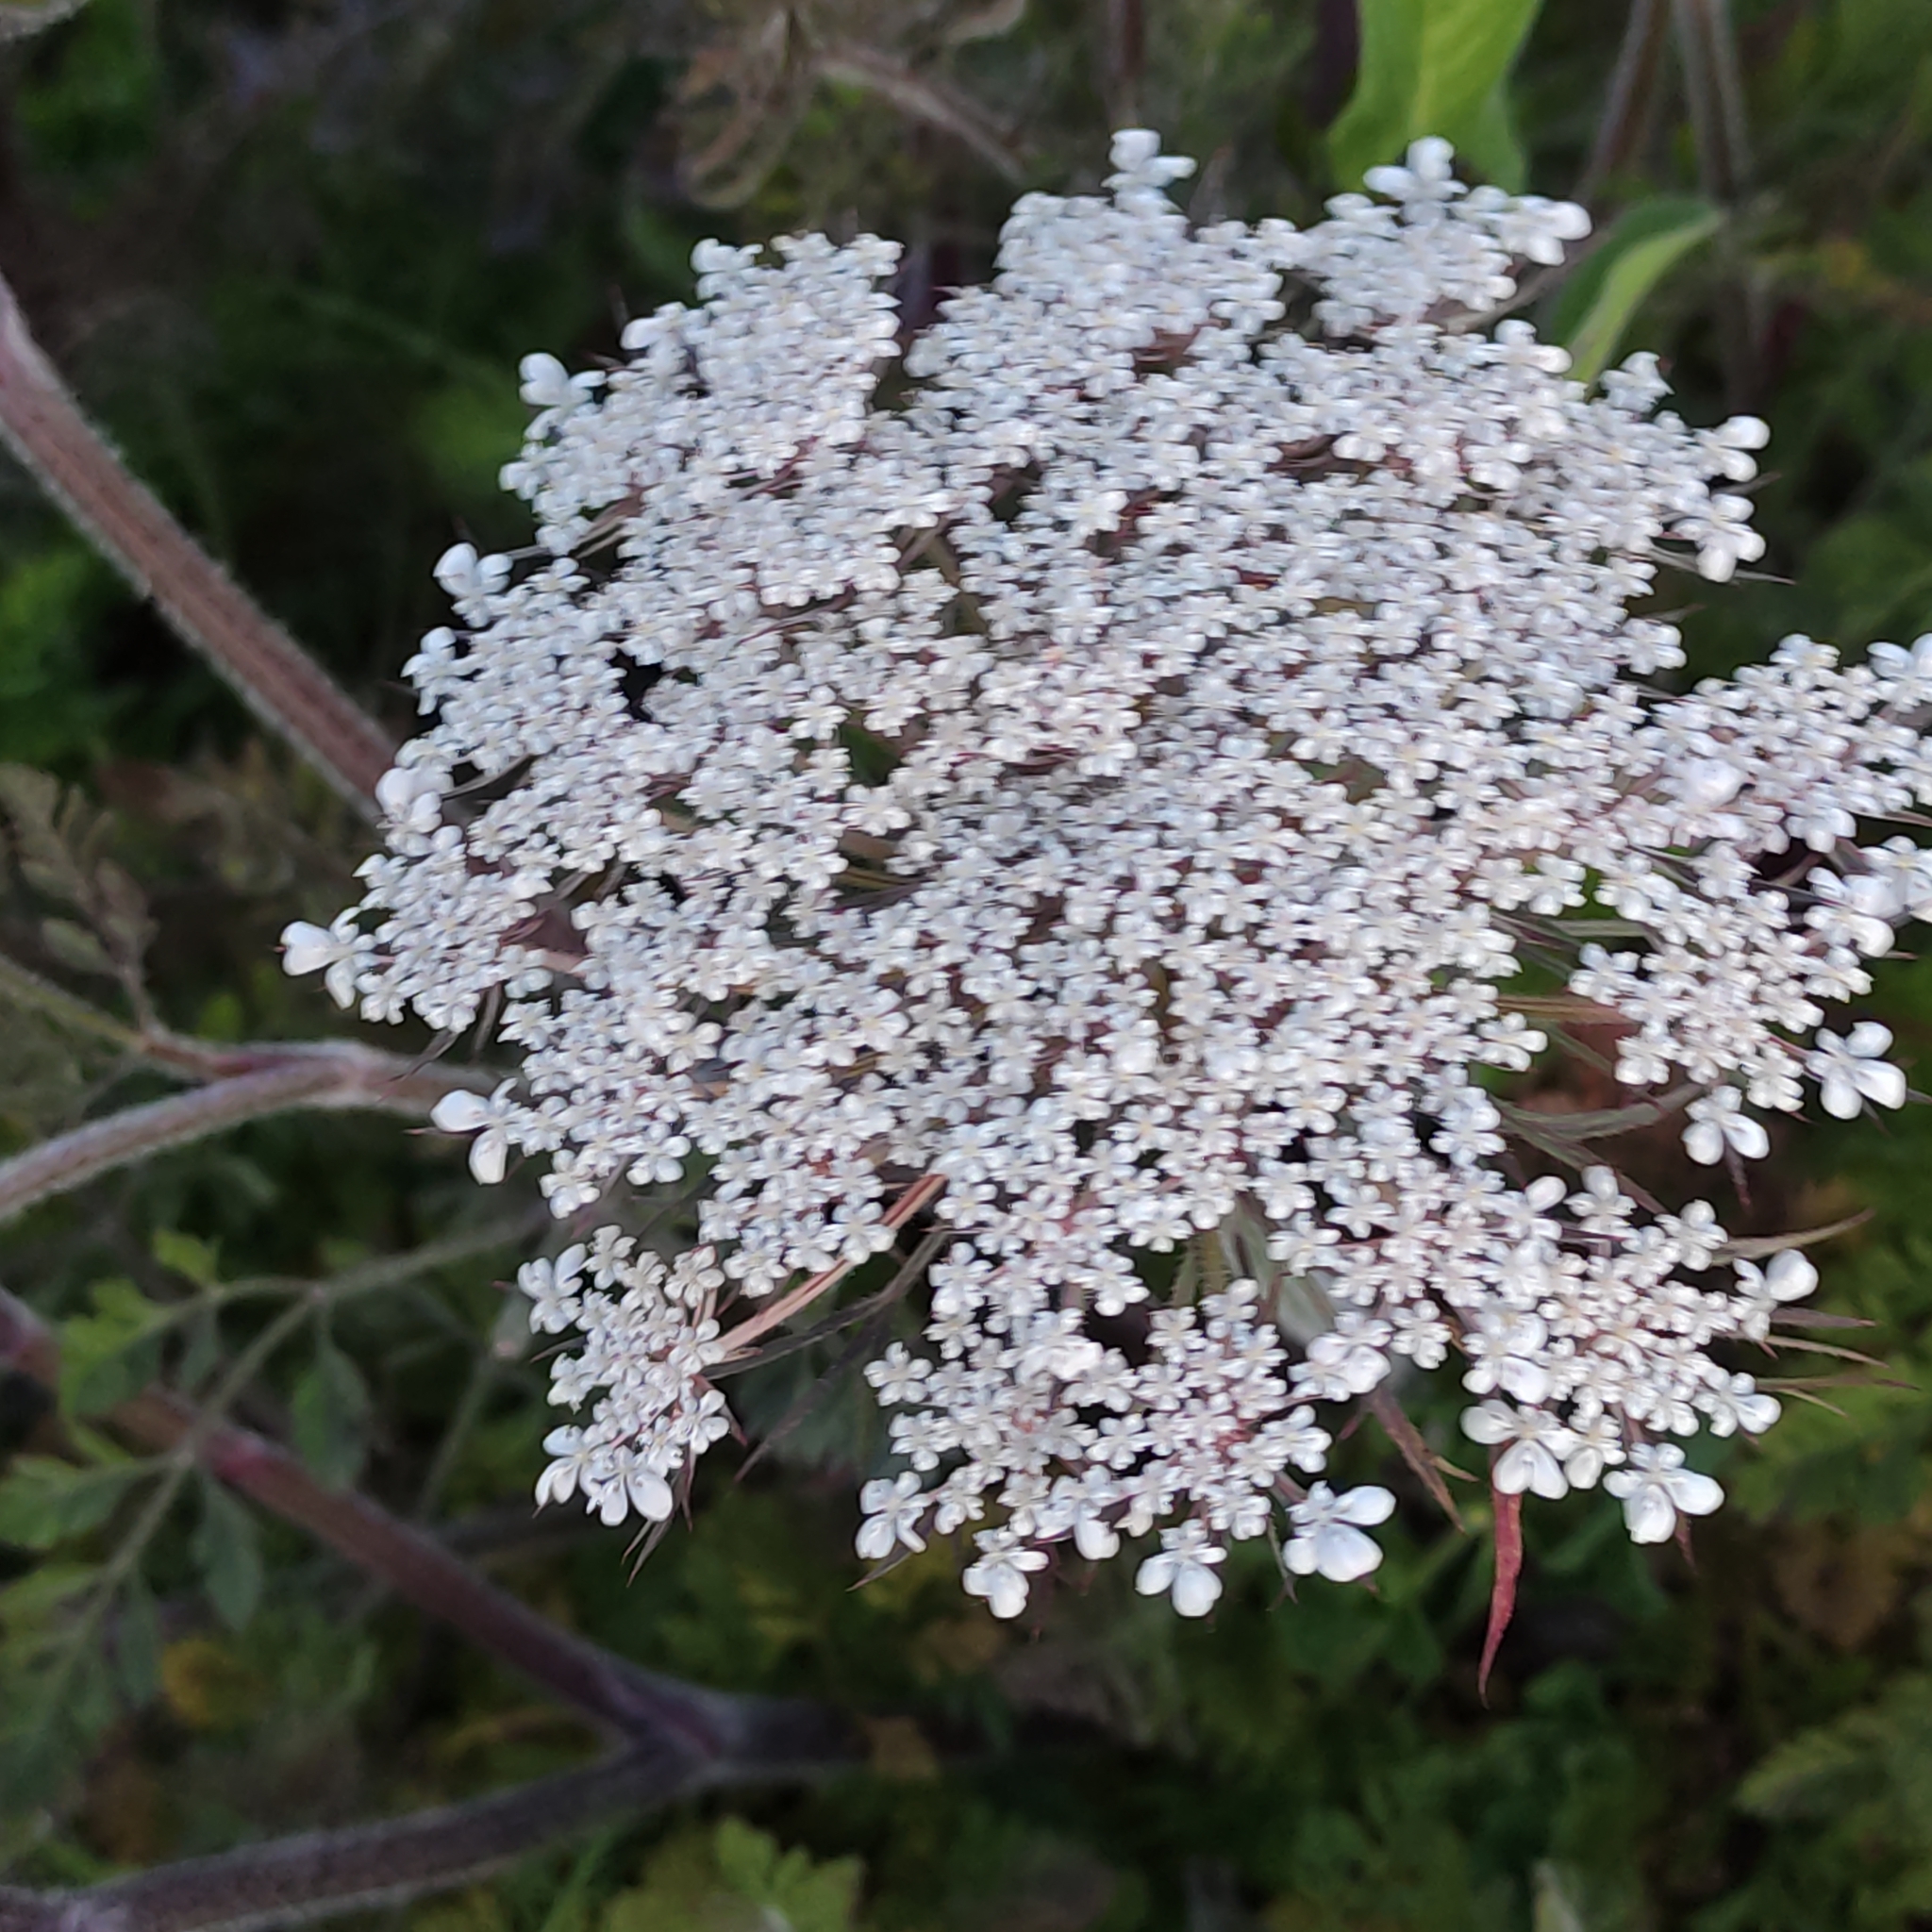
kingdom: Plantae
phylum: Tracheophyta
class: Magnoliopsida
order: Apiales
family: Apiaceae
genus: Daucus
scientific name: Daucus carota
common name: Wild carrot
